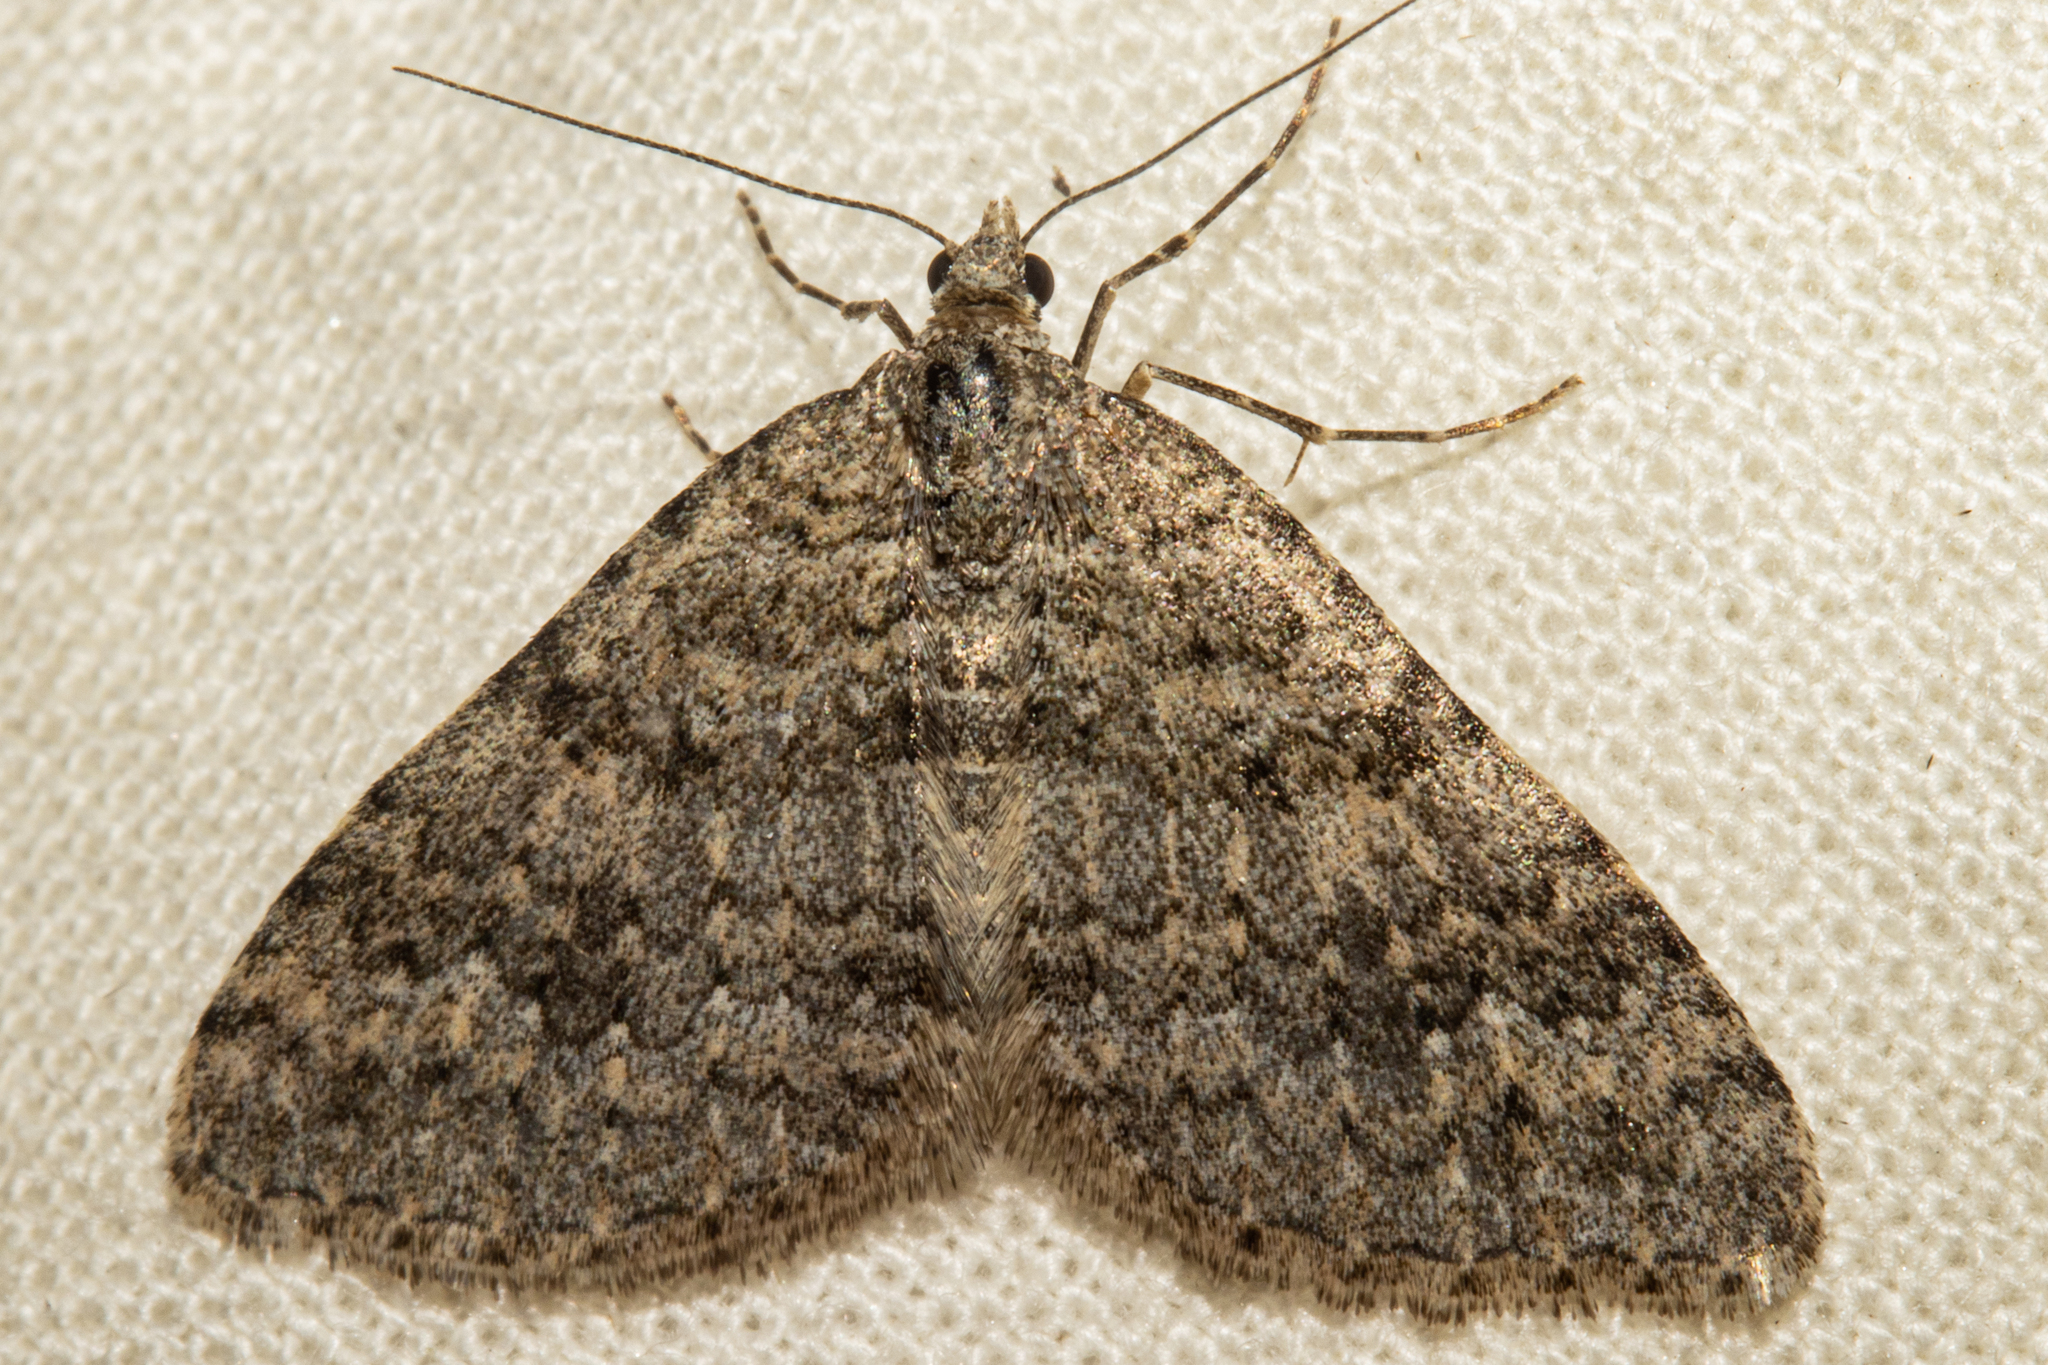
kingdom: Animalia
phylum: Arthropoda
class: Insecta
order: Lepidoptera
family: Geometridae
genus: Helastia
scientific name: Helastia corcularia
